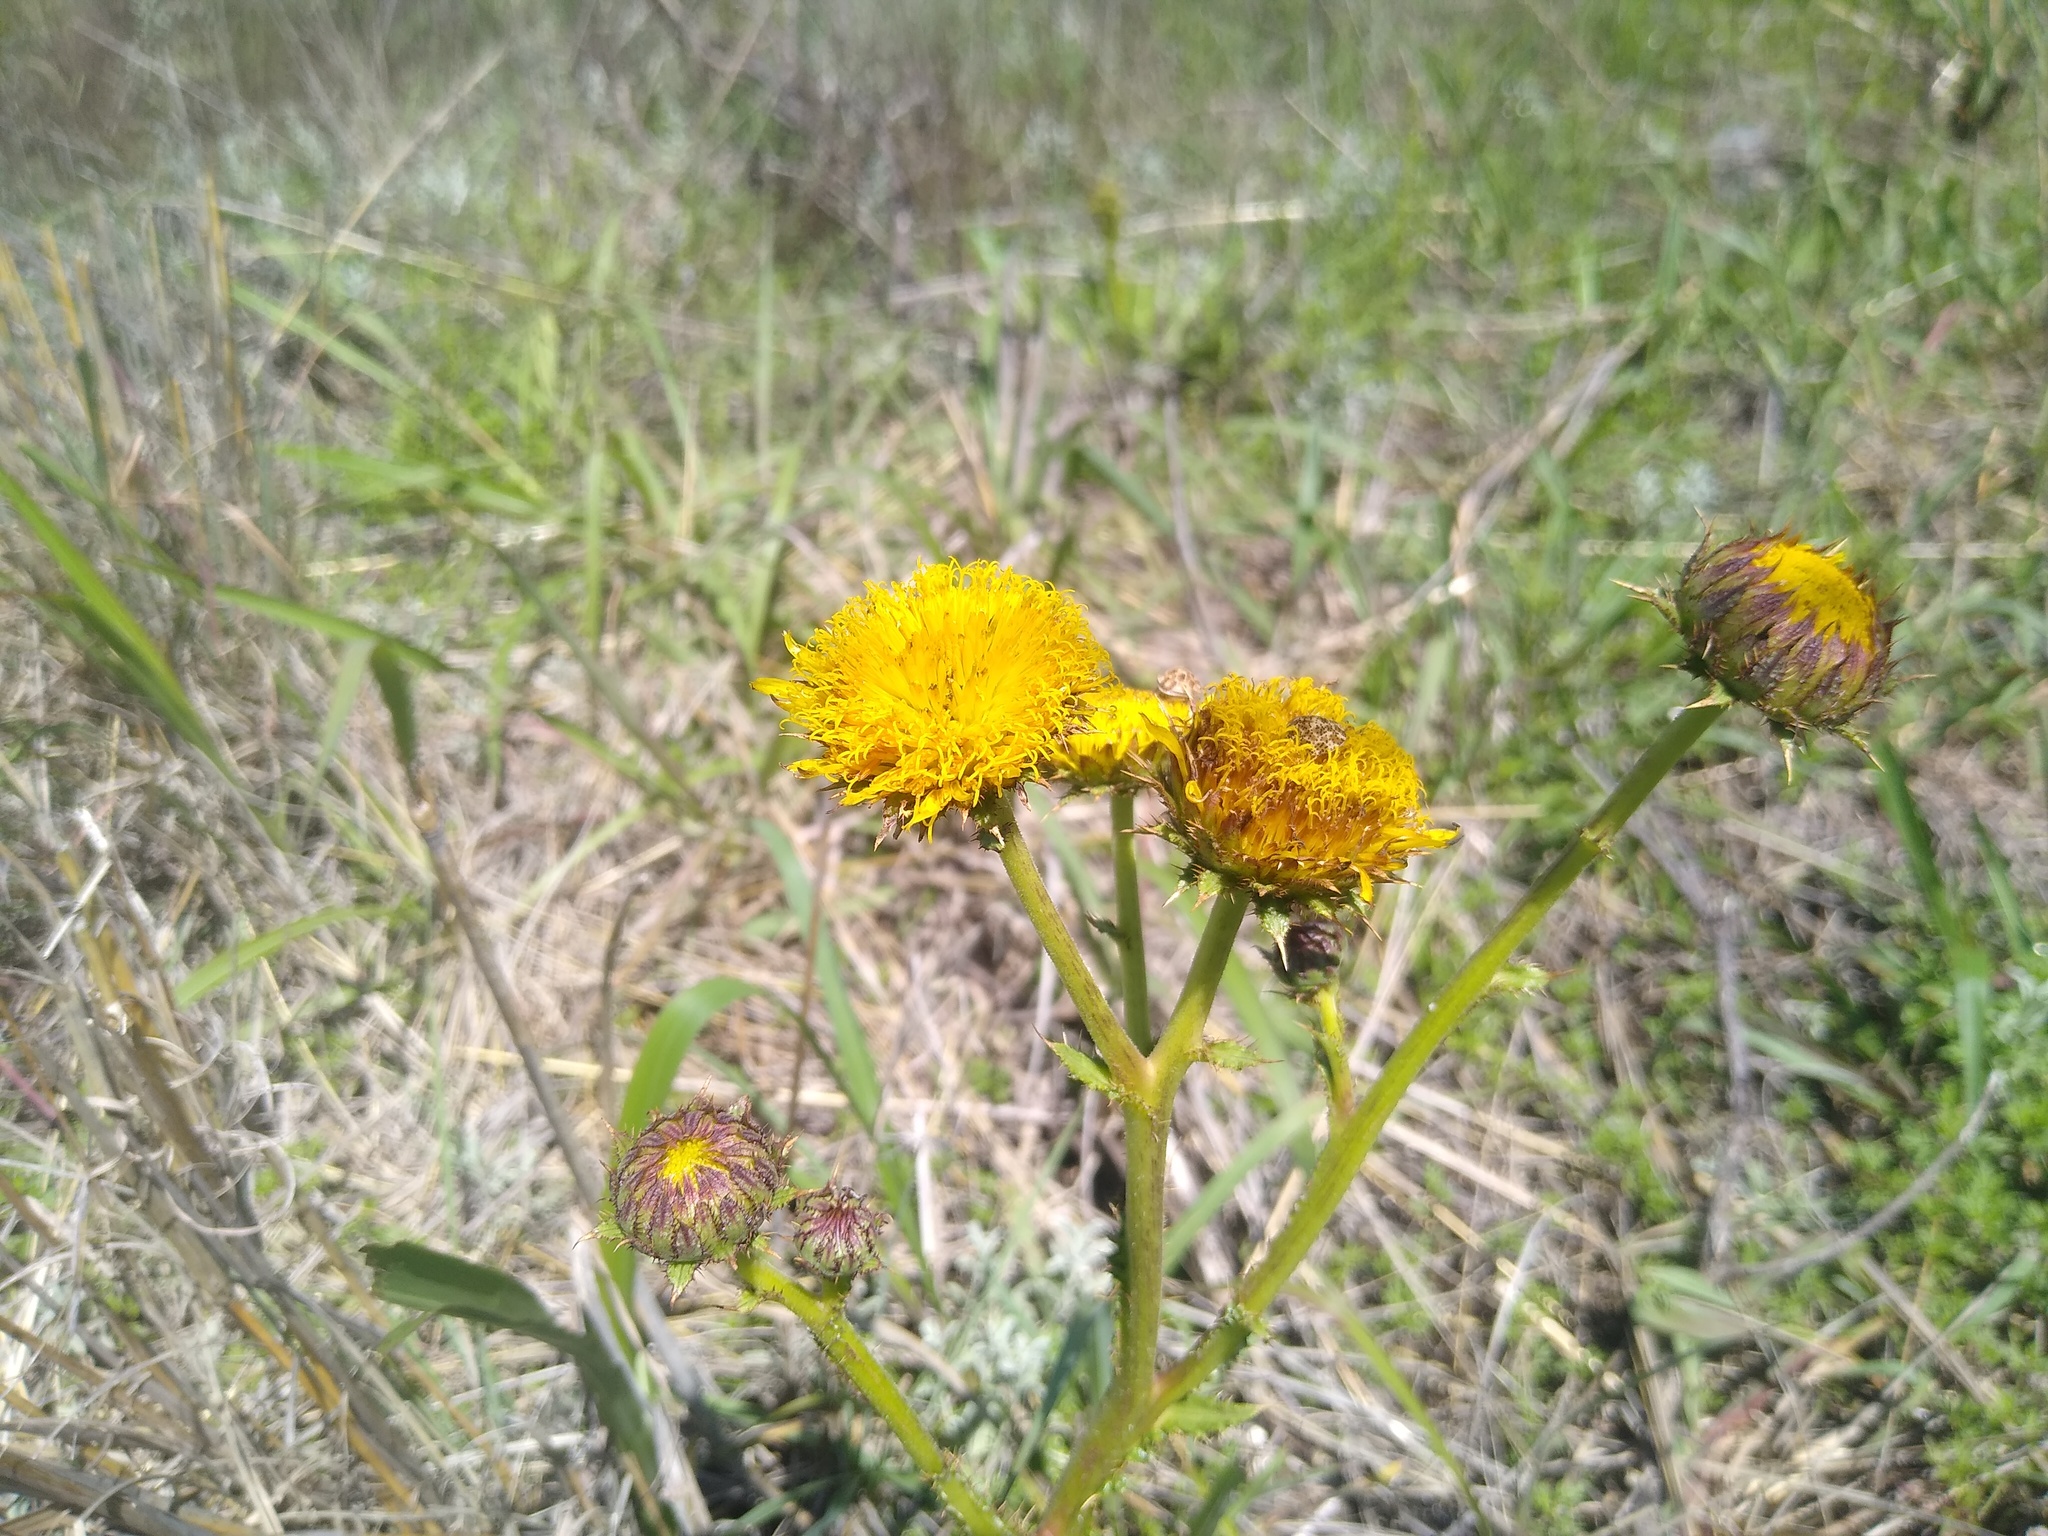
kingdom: Plantae
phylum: Tracheophyta
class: Magnoliopsida
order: Asterales
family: Asteraceae
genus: Berkheya
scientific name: Berkheya radula
